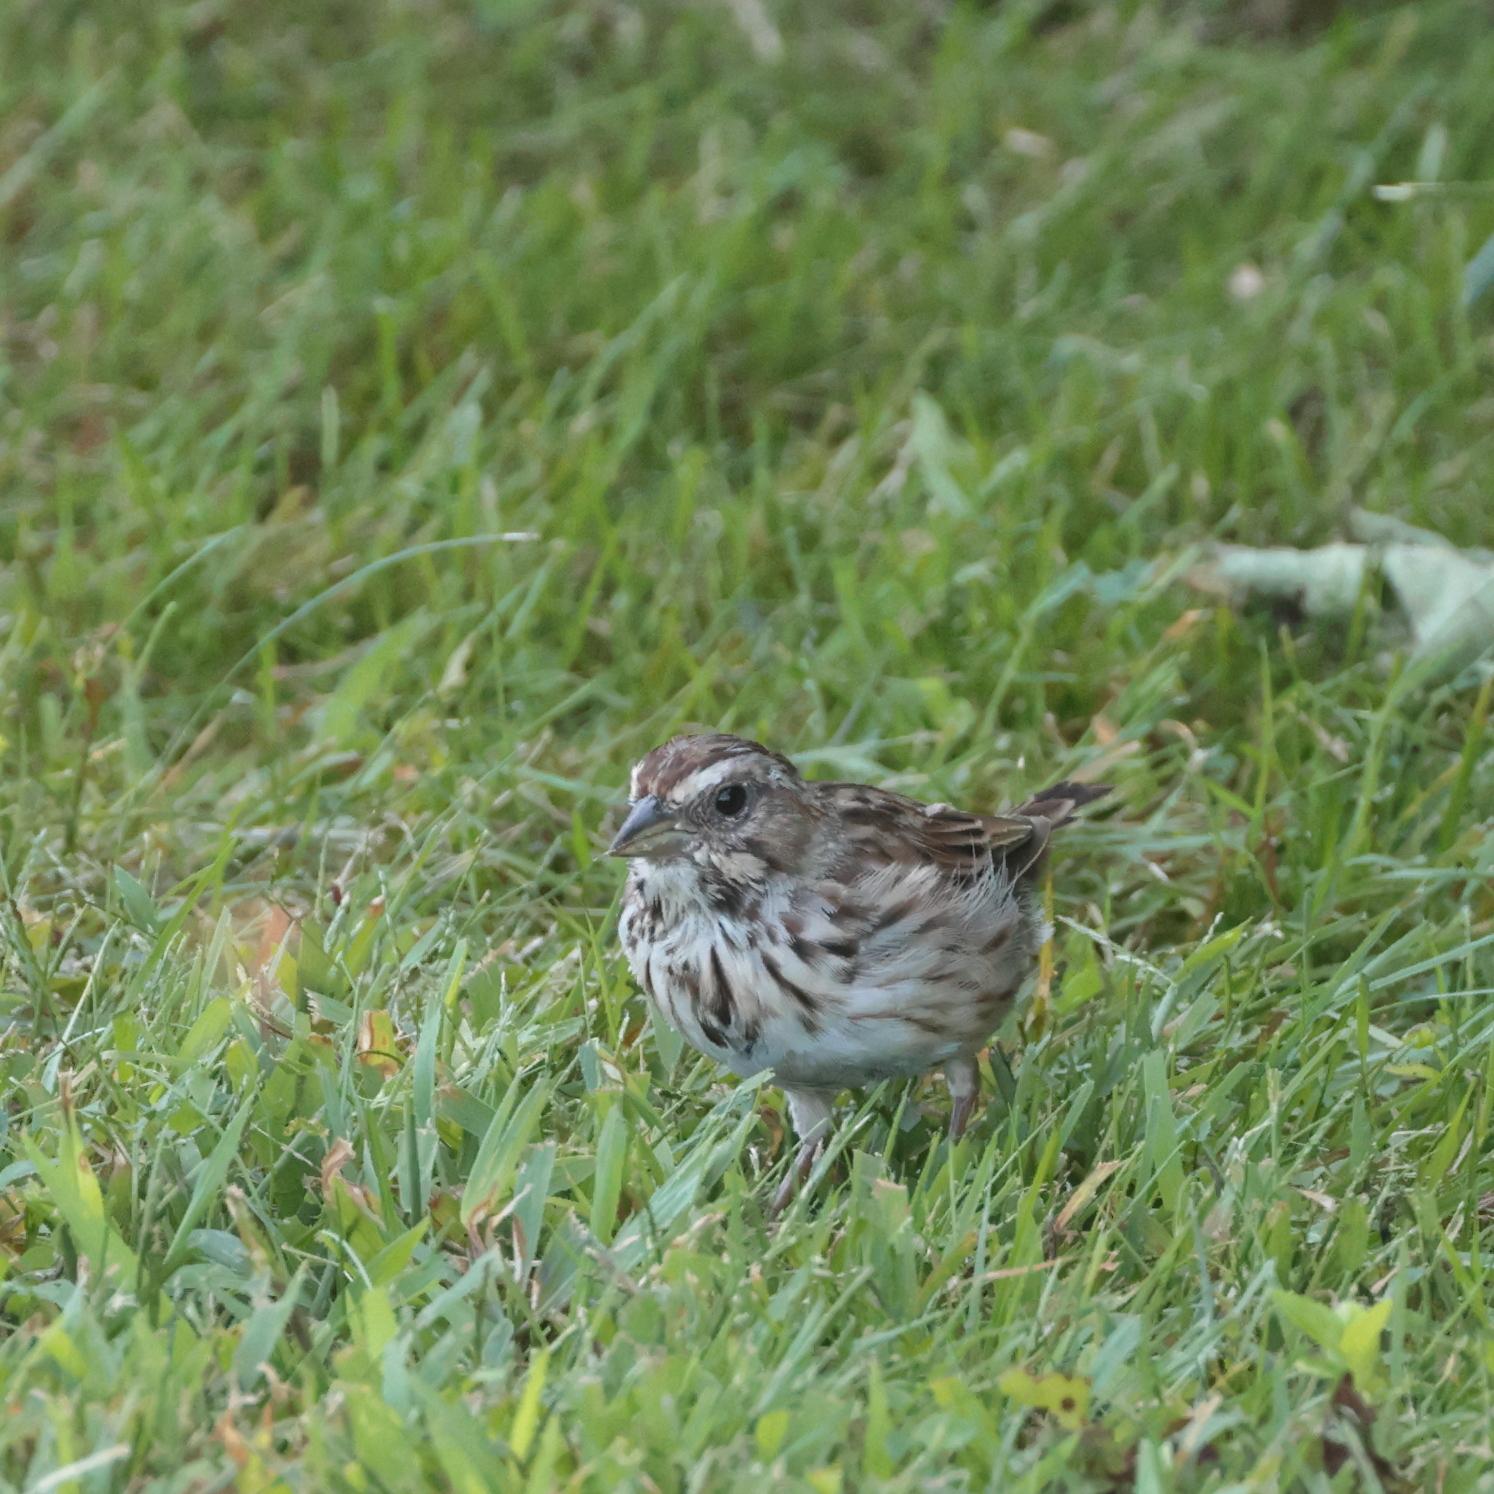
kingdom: Animalia
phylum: Chordata
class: Aves
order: Passeriformes
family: Passerellidae
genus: Melospiza
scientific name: Melospiza melodia
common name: Song sparrow
